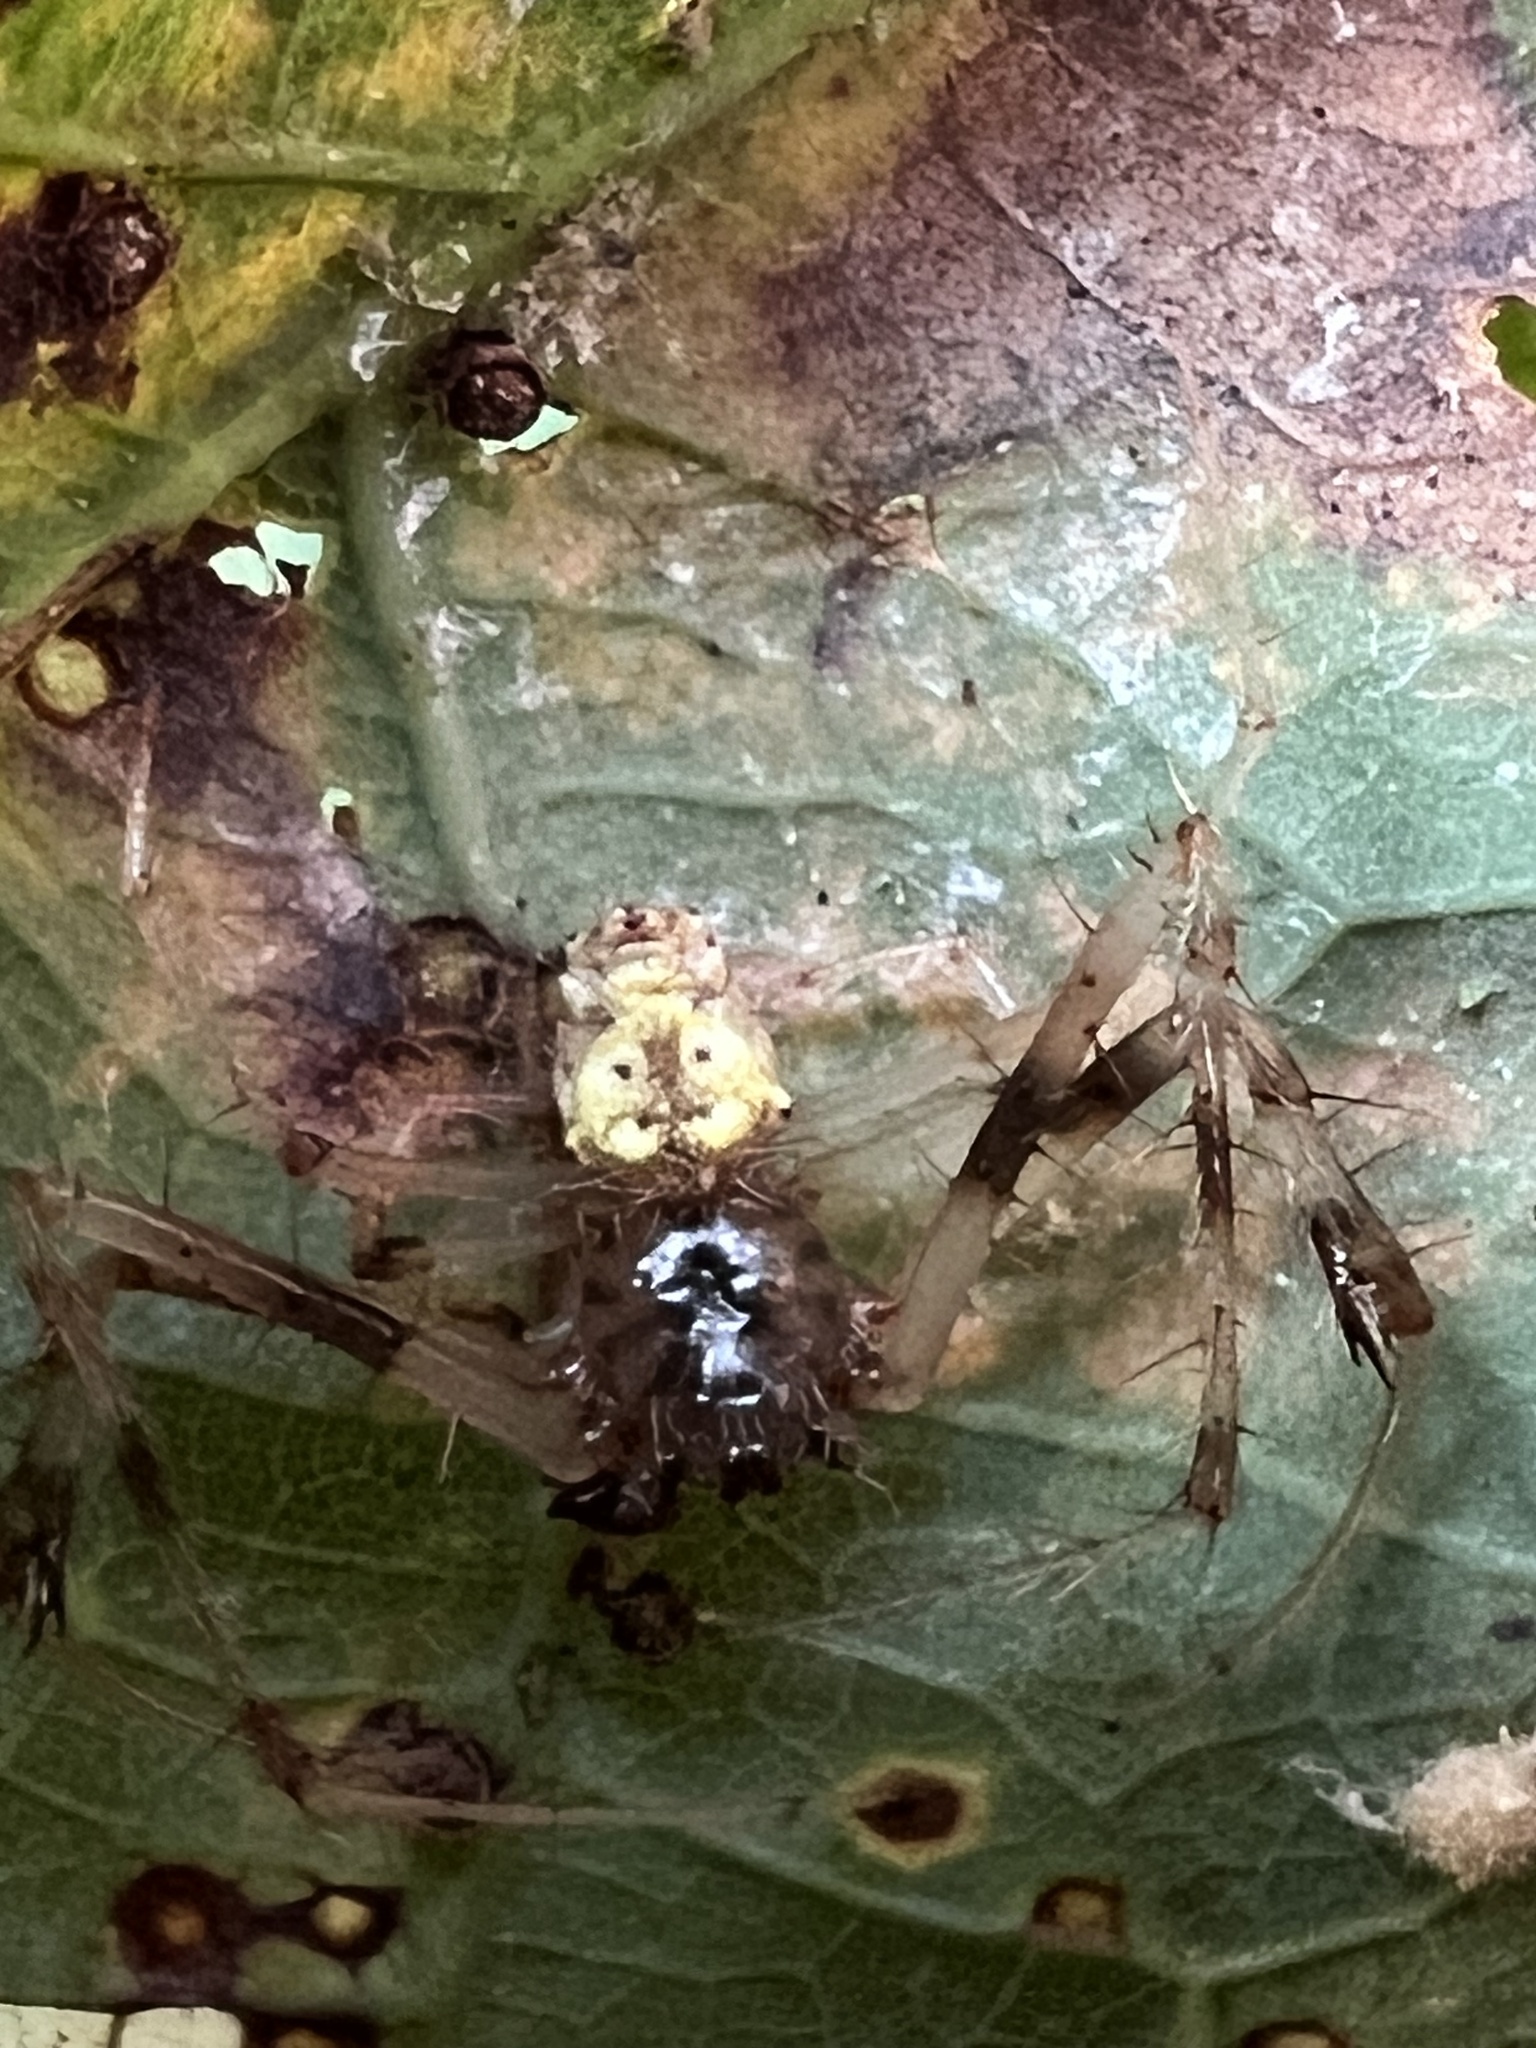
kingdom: Animalia
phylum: Arthropoda
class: Arachnida
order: Araneae
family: Araneidae
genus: Verrucosa
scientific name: Verrucosa arenata
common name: Orb weavers
